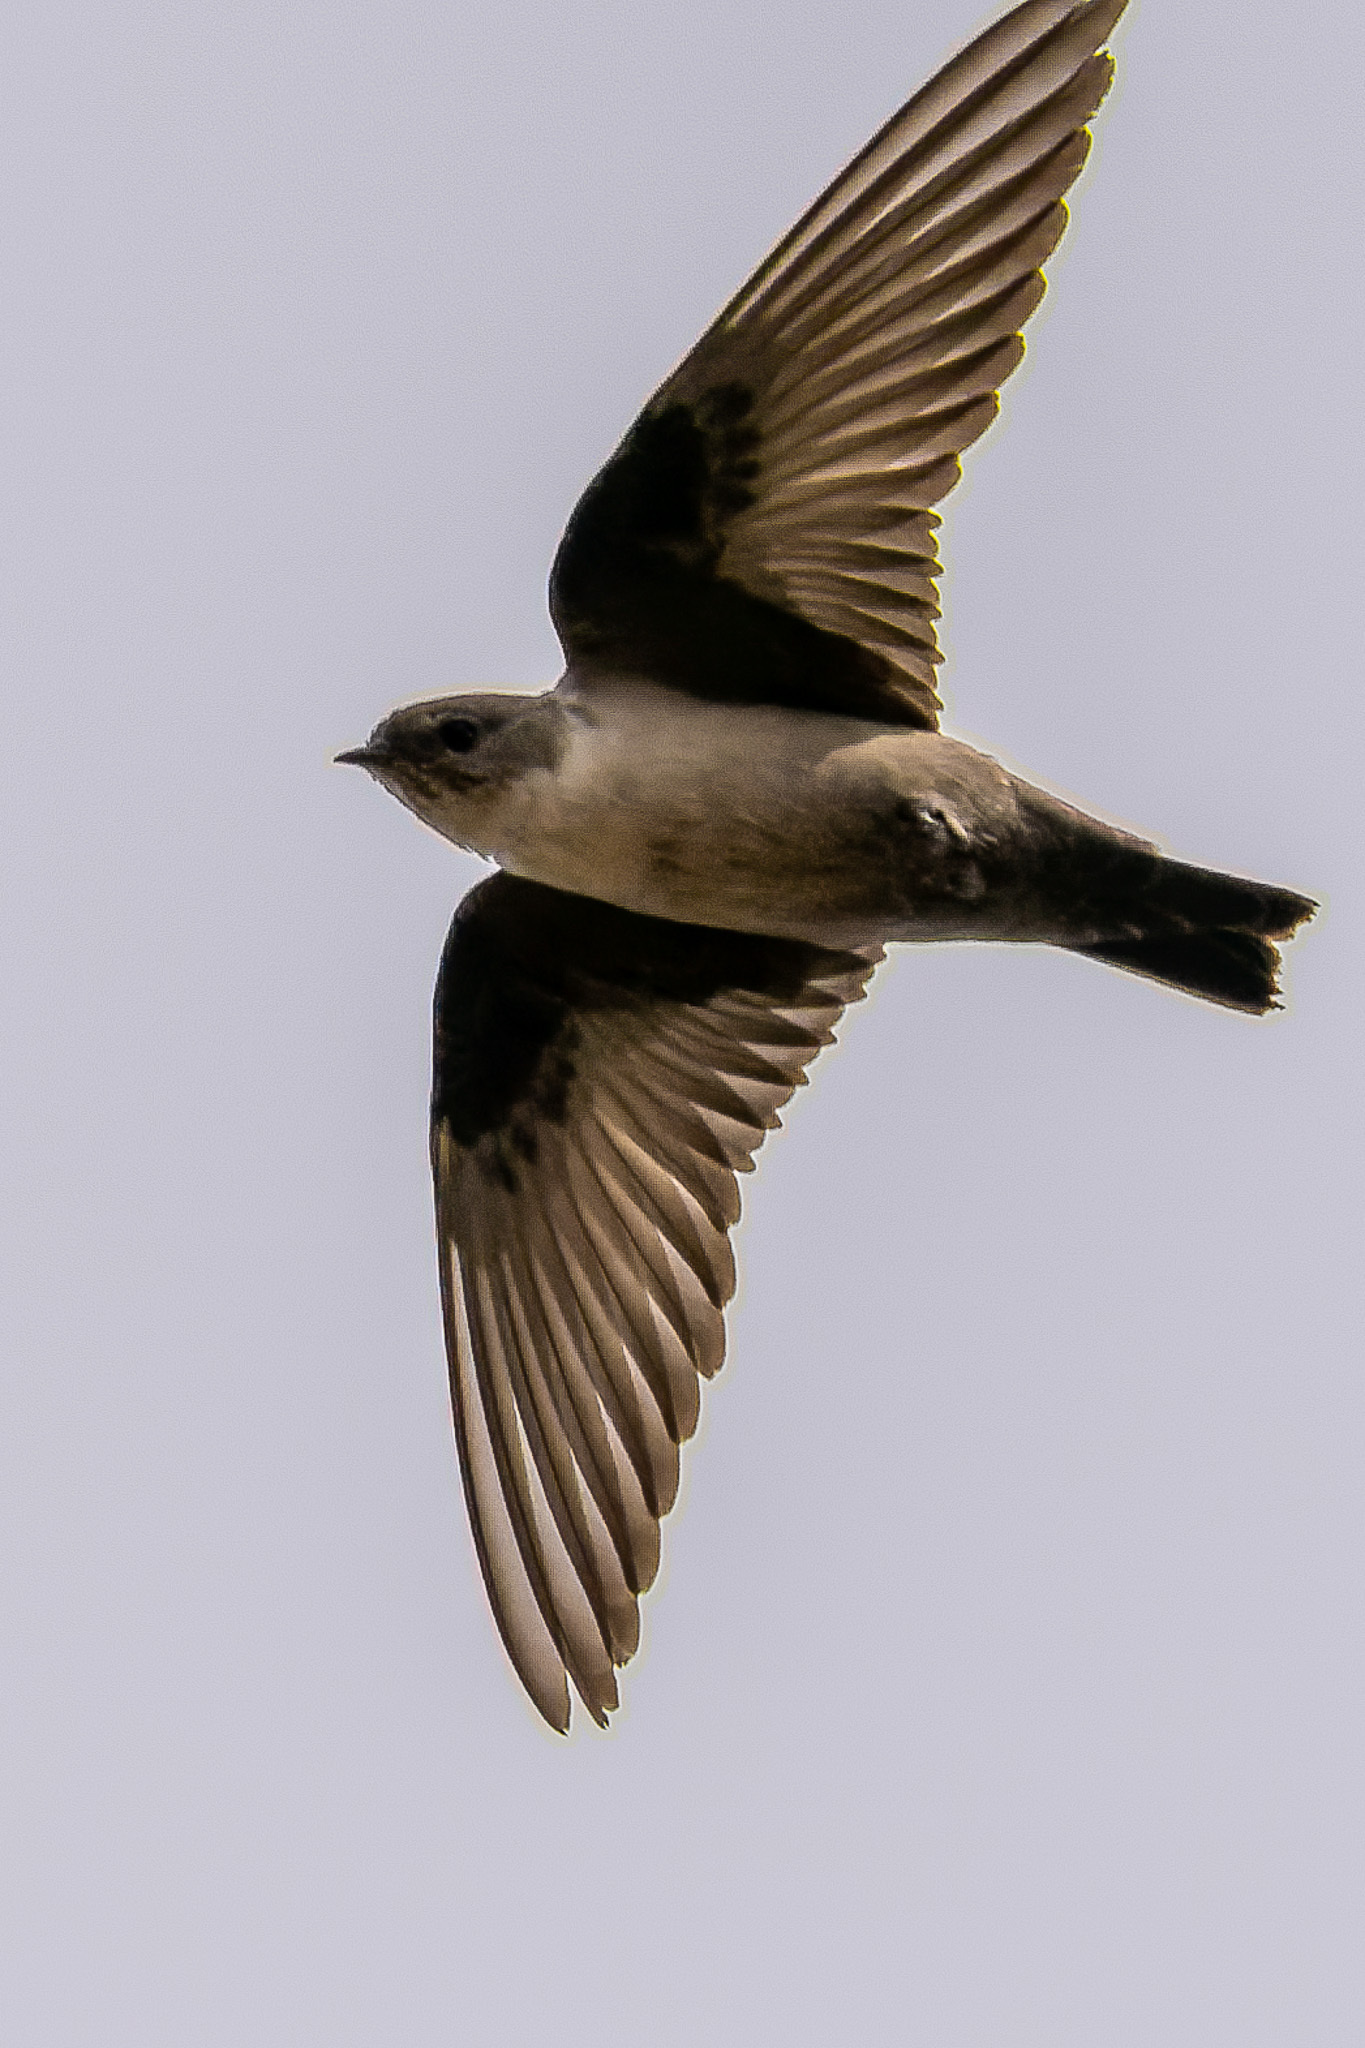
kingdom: Animalia
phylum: Chordata
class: Aves
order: Passeriformes
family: Hirundinidae
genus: Ptyonoprogne
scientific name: Ptyonoprogne rupestris
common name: Eurasian crag martin
